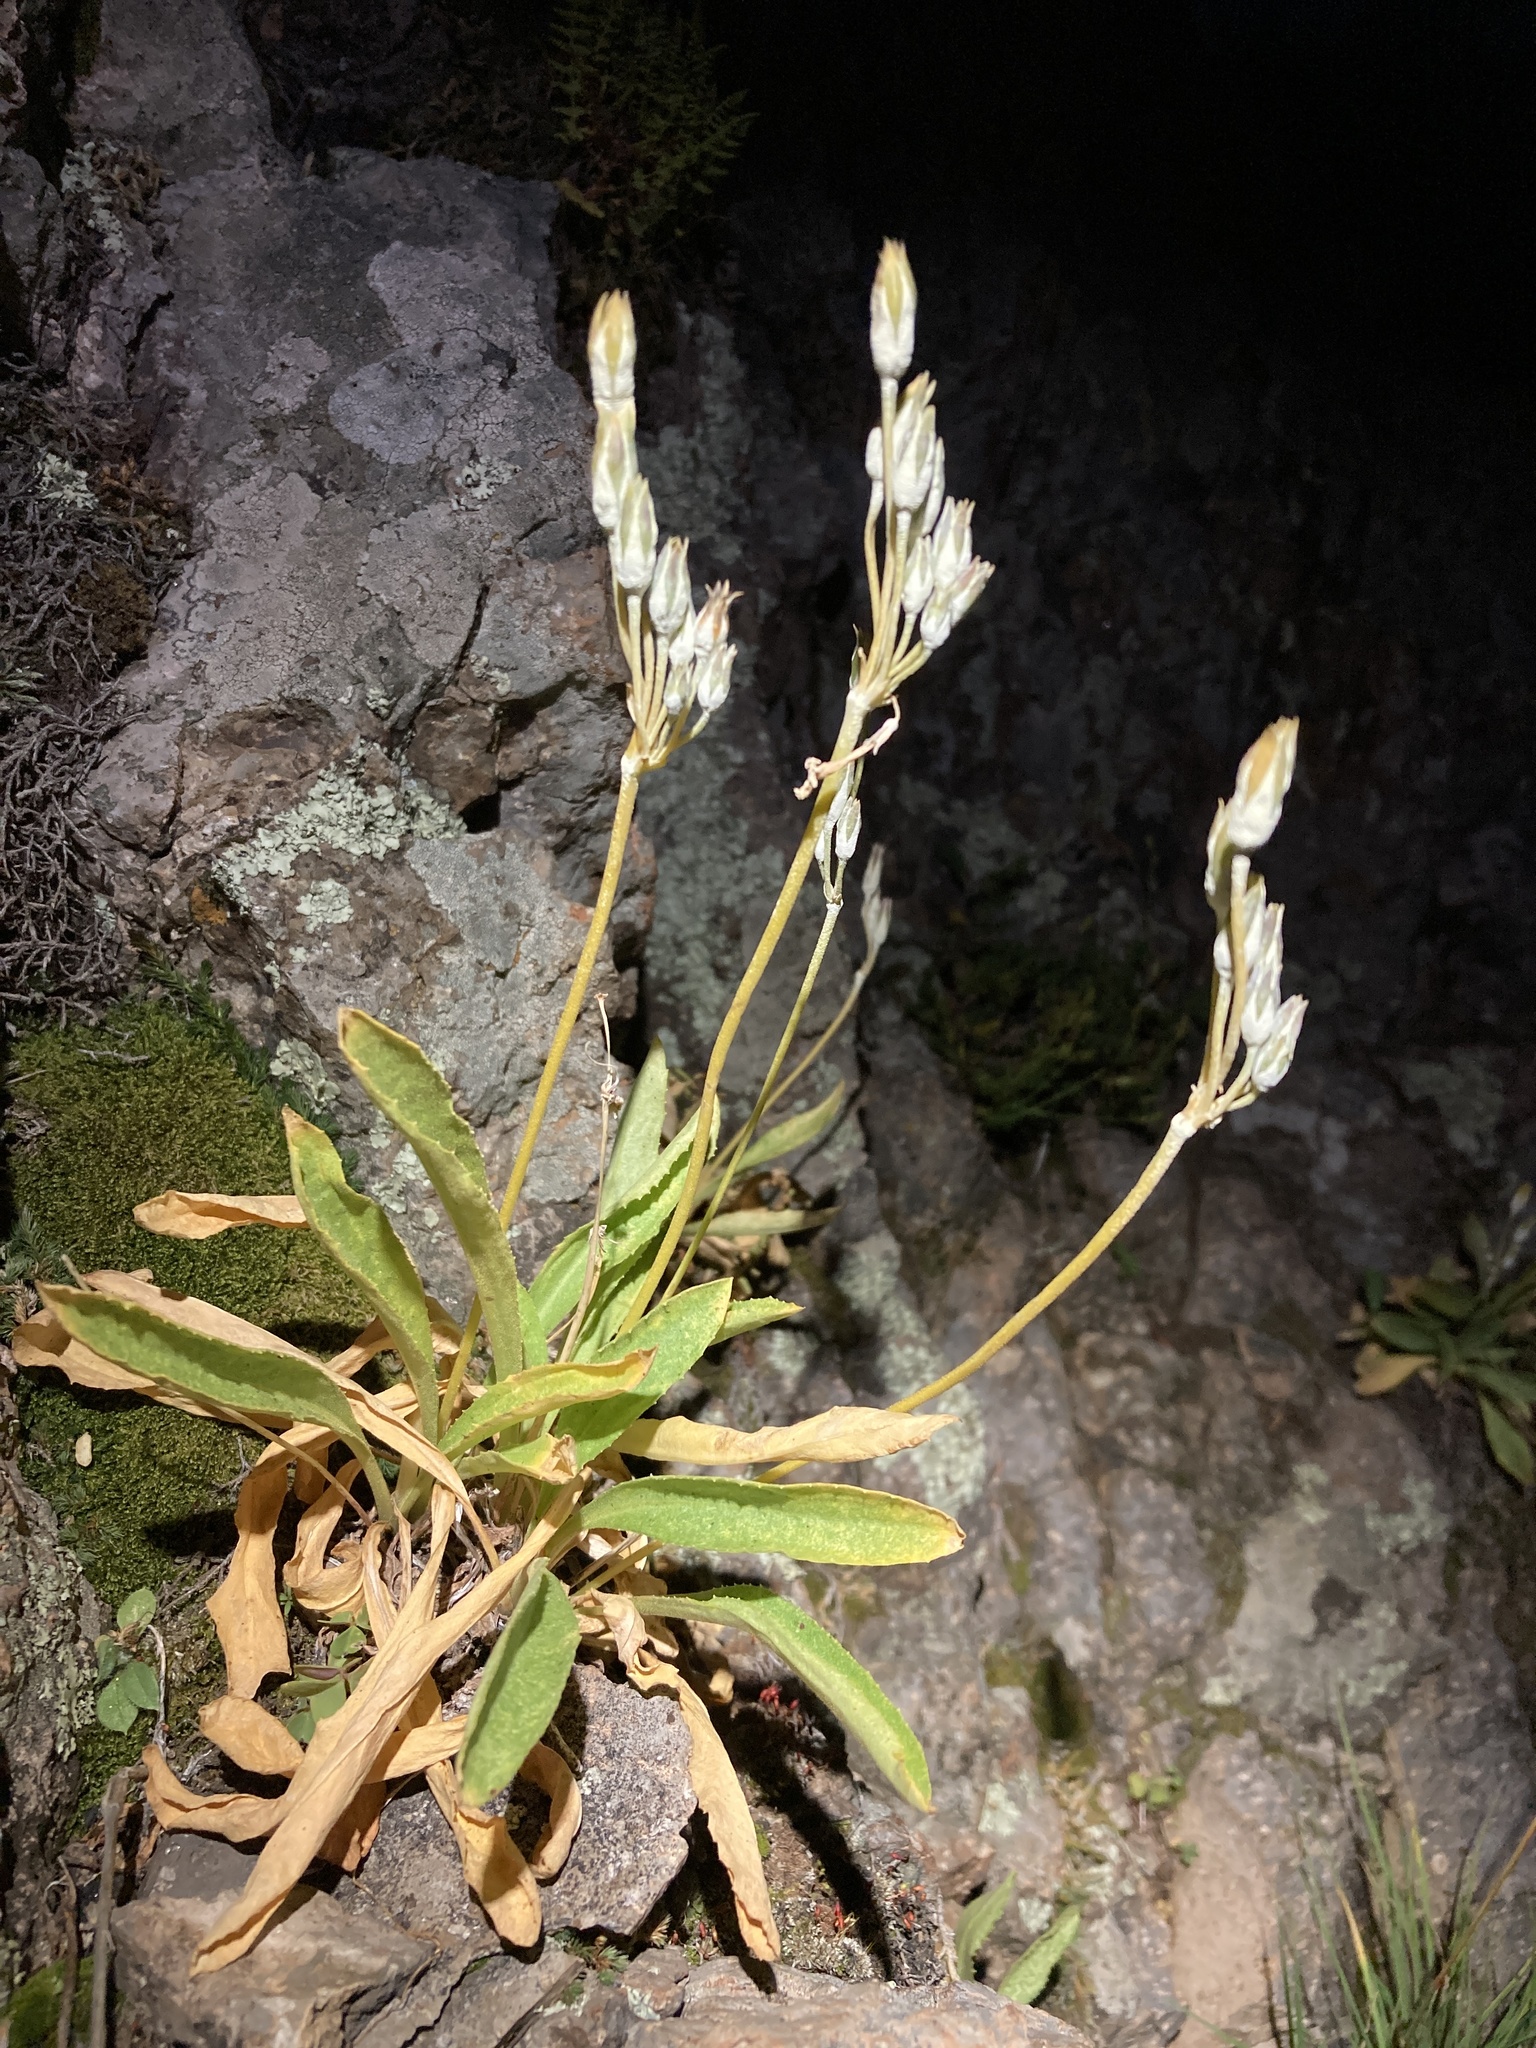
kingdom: Plantae
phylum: Tracheophyta
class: Magnoliopsida
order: Ericales
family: Primulaceae
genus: Primula
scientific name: Primula rusbyi
